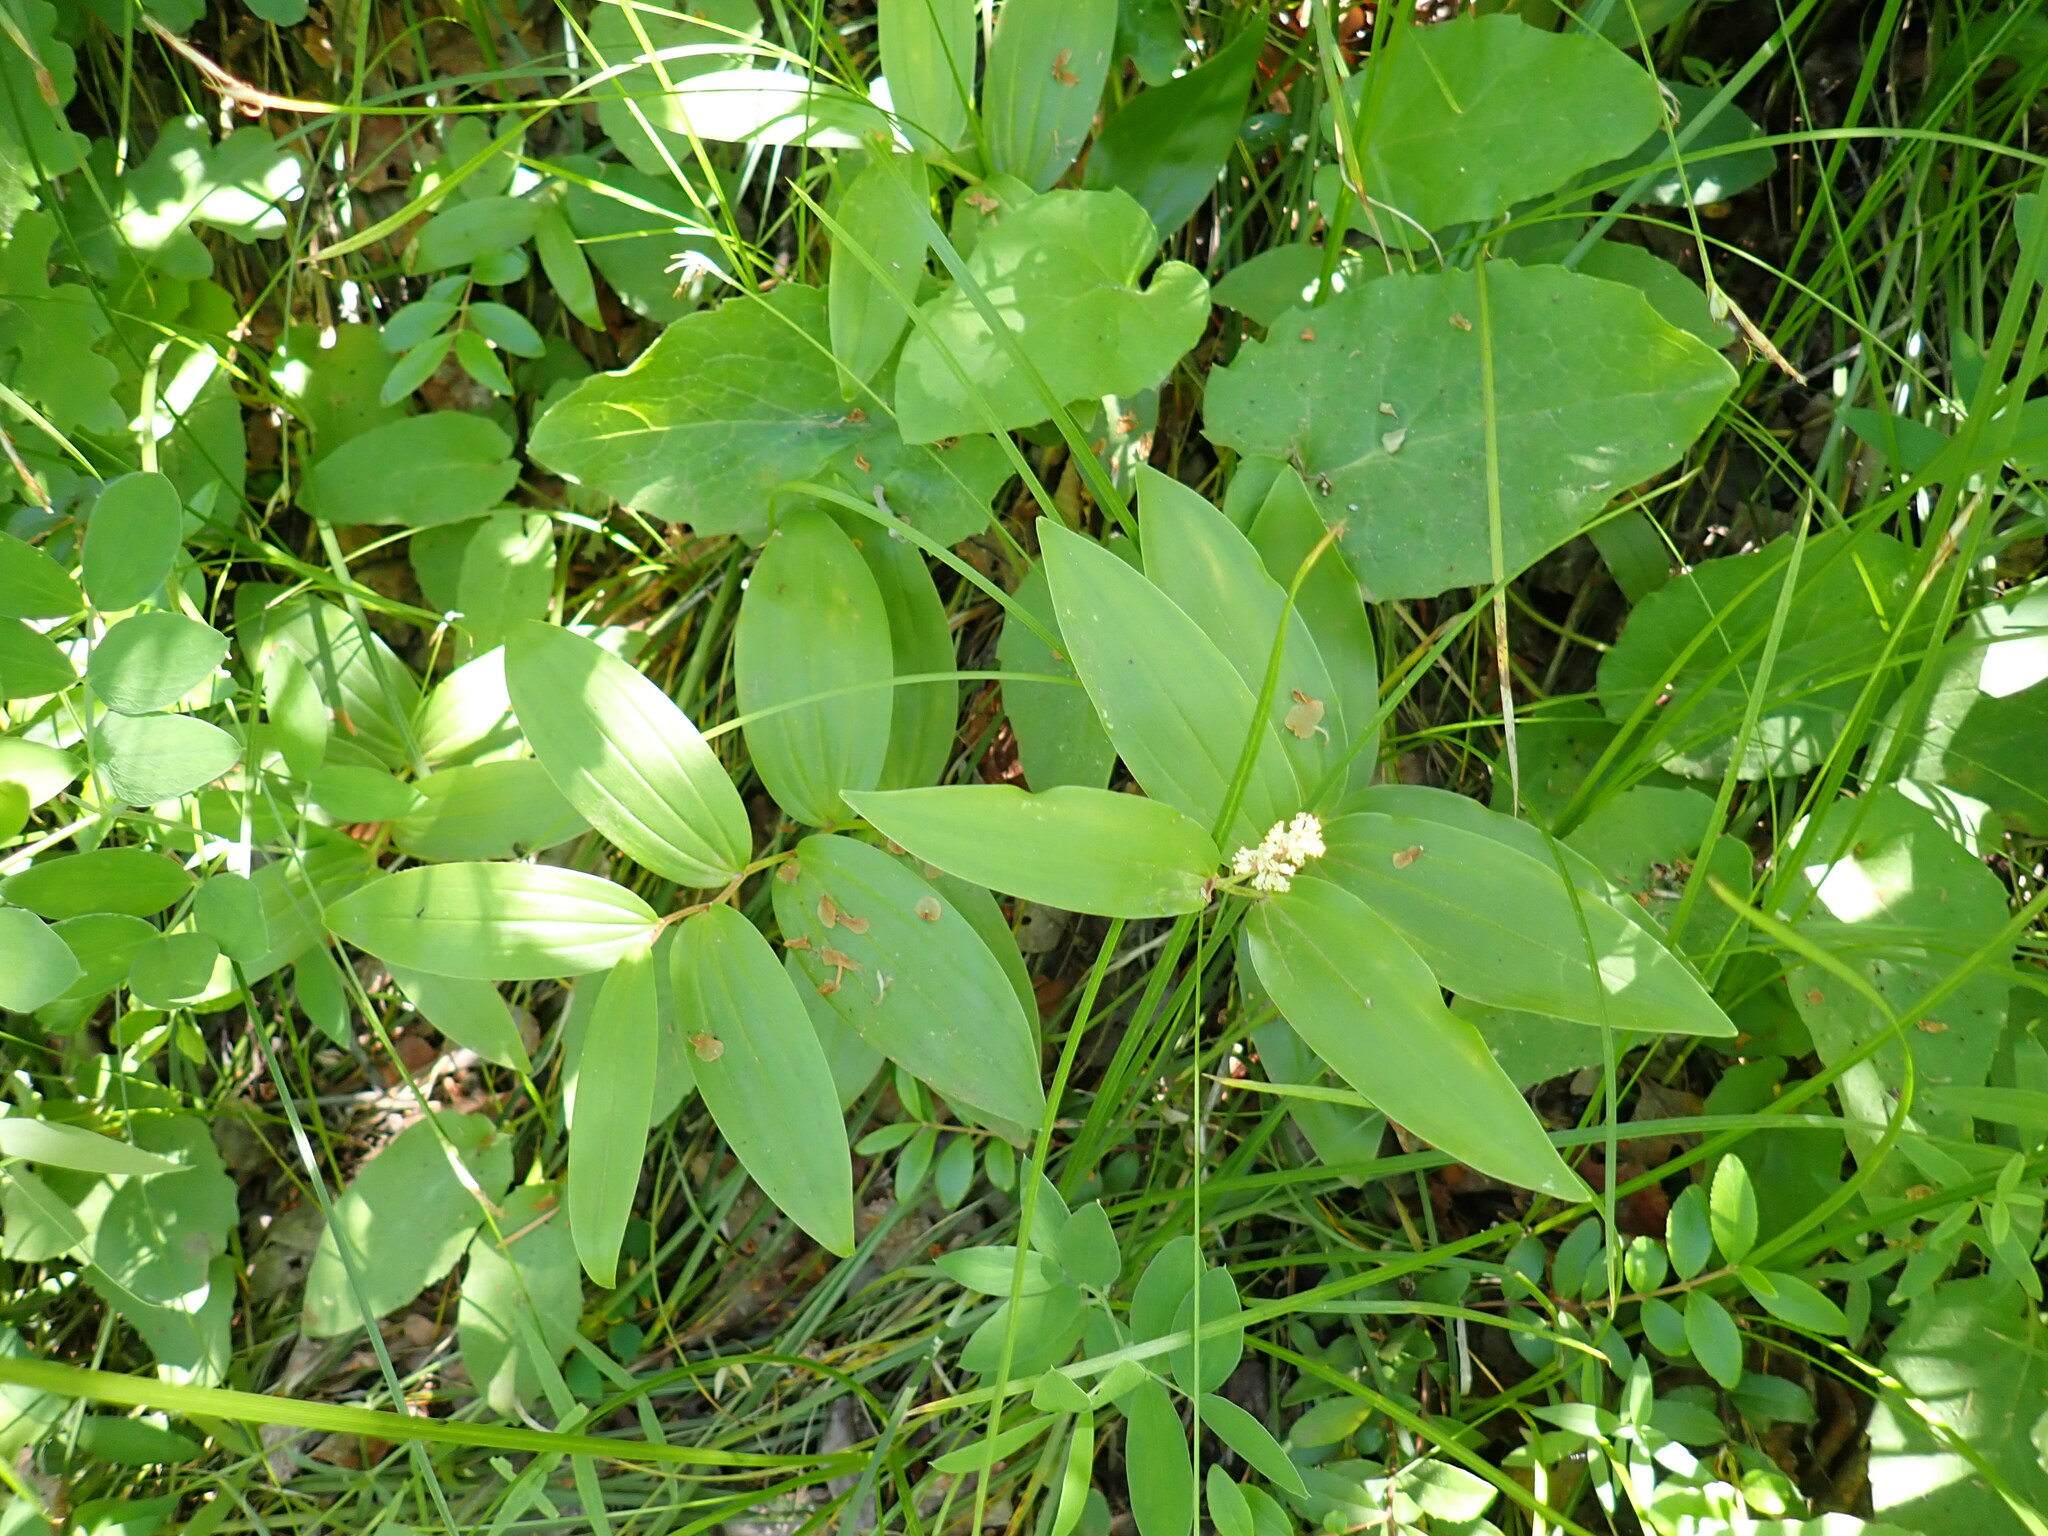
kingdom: Plantae
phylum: Tracheophyta
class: Liliopsida
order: Asparagales
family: Asparagaceae
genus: Maianthemum
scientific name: Maianthemum racemosum
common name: False spikenard
